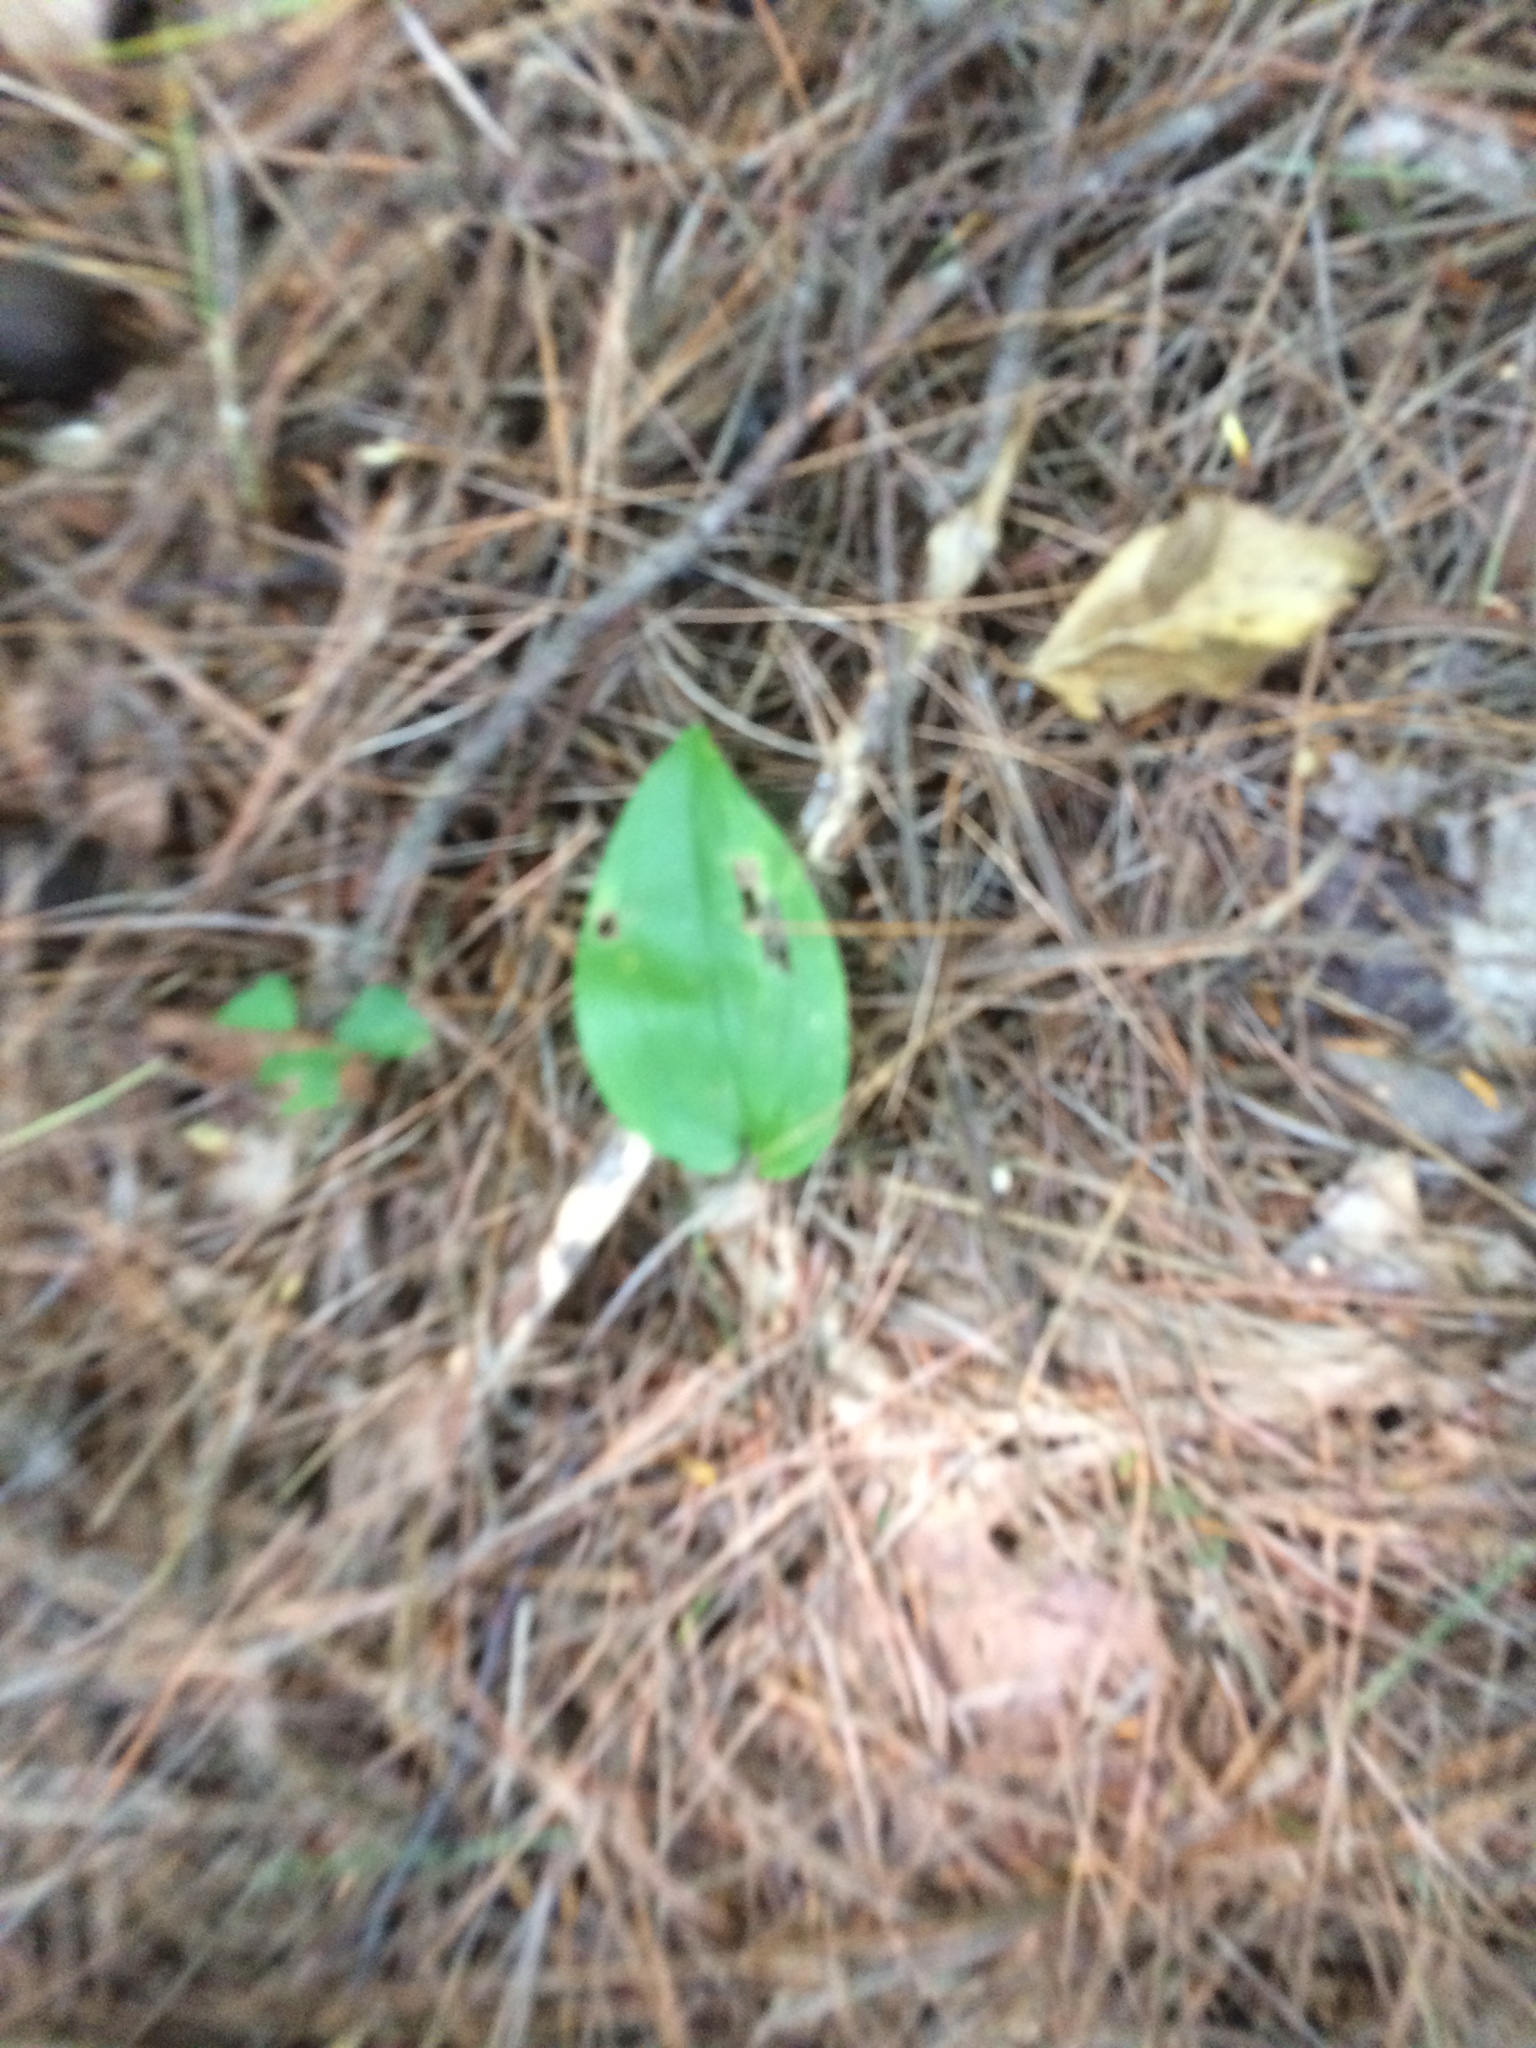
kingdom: Plantae
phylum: Tracheophyta
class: Liliopsida
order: Asparagales
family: Asparagaceae
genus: Maianthemum
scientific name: Maianthemum canadense
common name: False lily-of-the-valley
